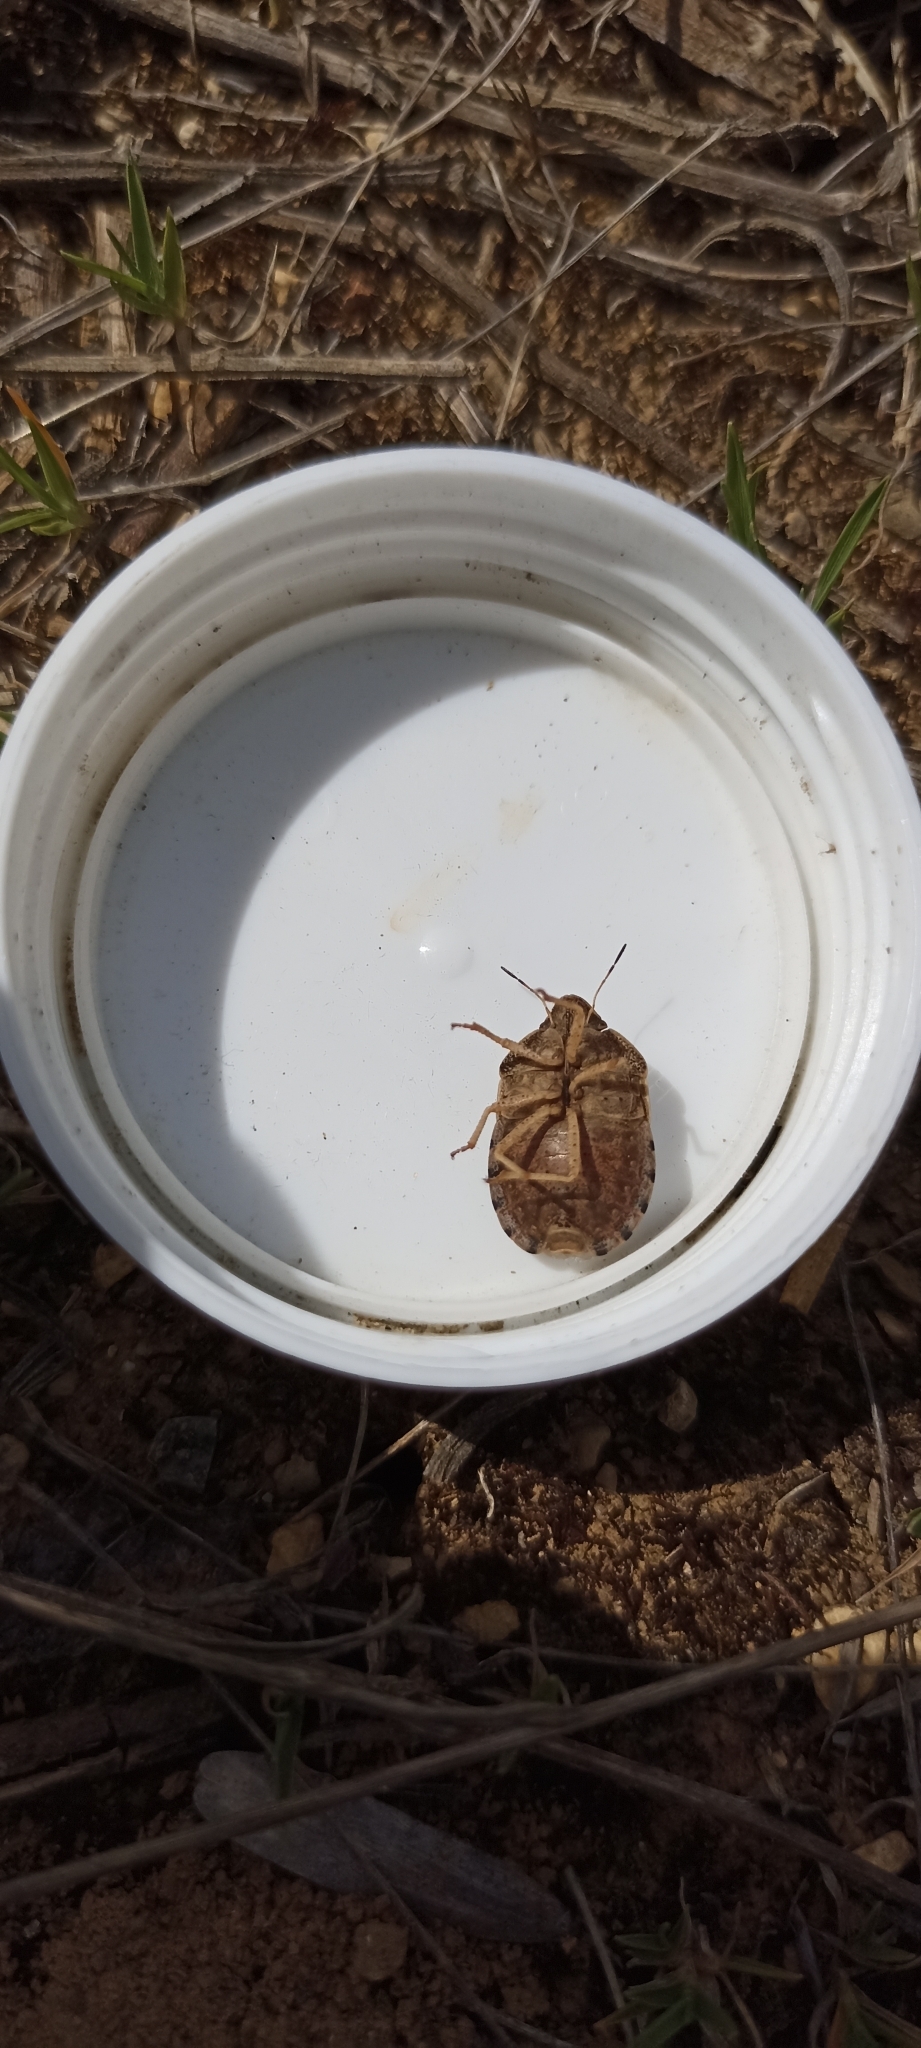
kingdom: Animalia
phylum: Arthropoda
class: Insecta
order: Hemiptera
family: Scutelleridae
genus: Eurygaster
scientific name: Eurygaster austriaca
